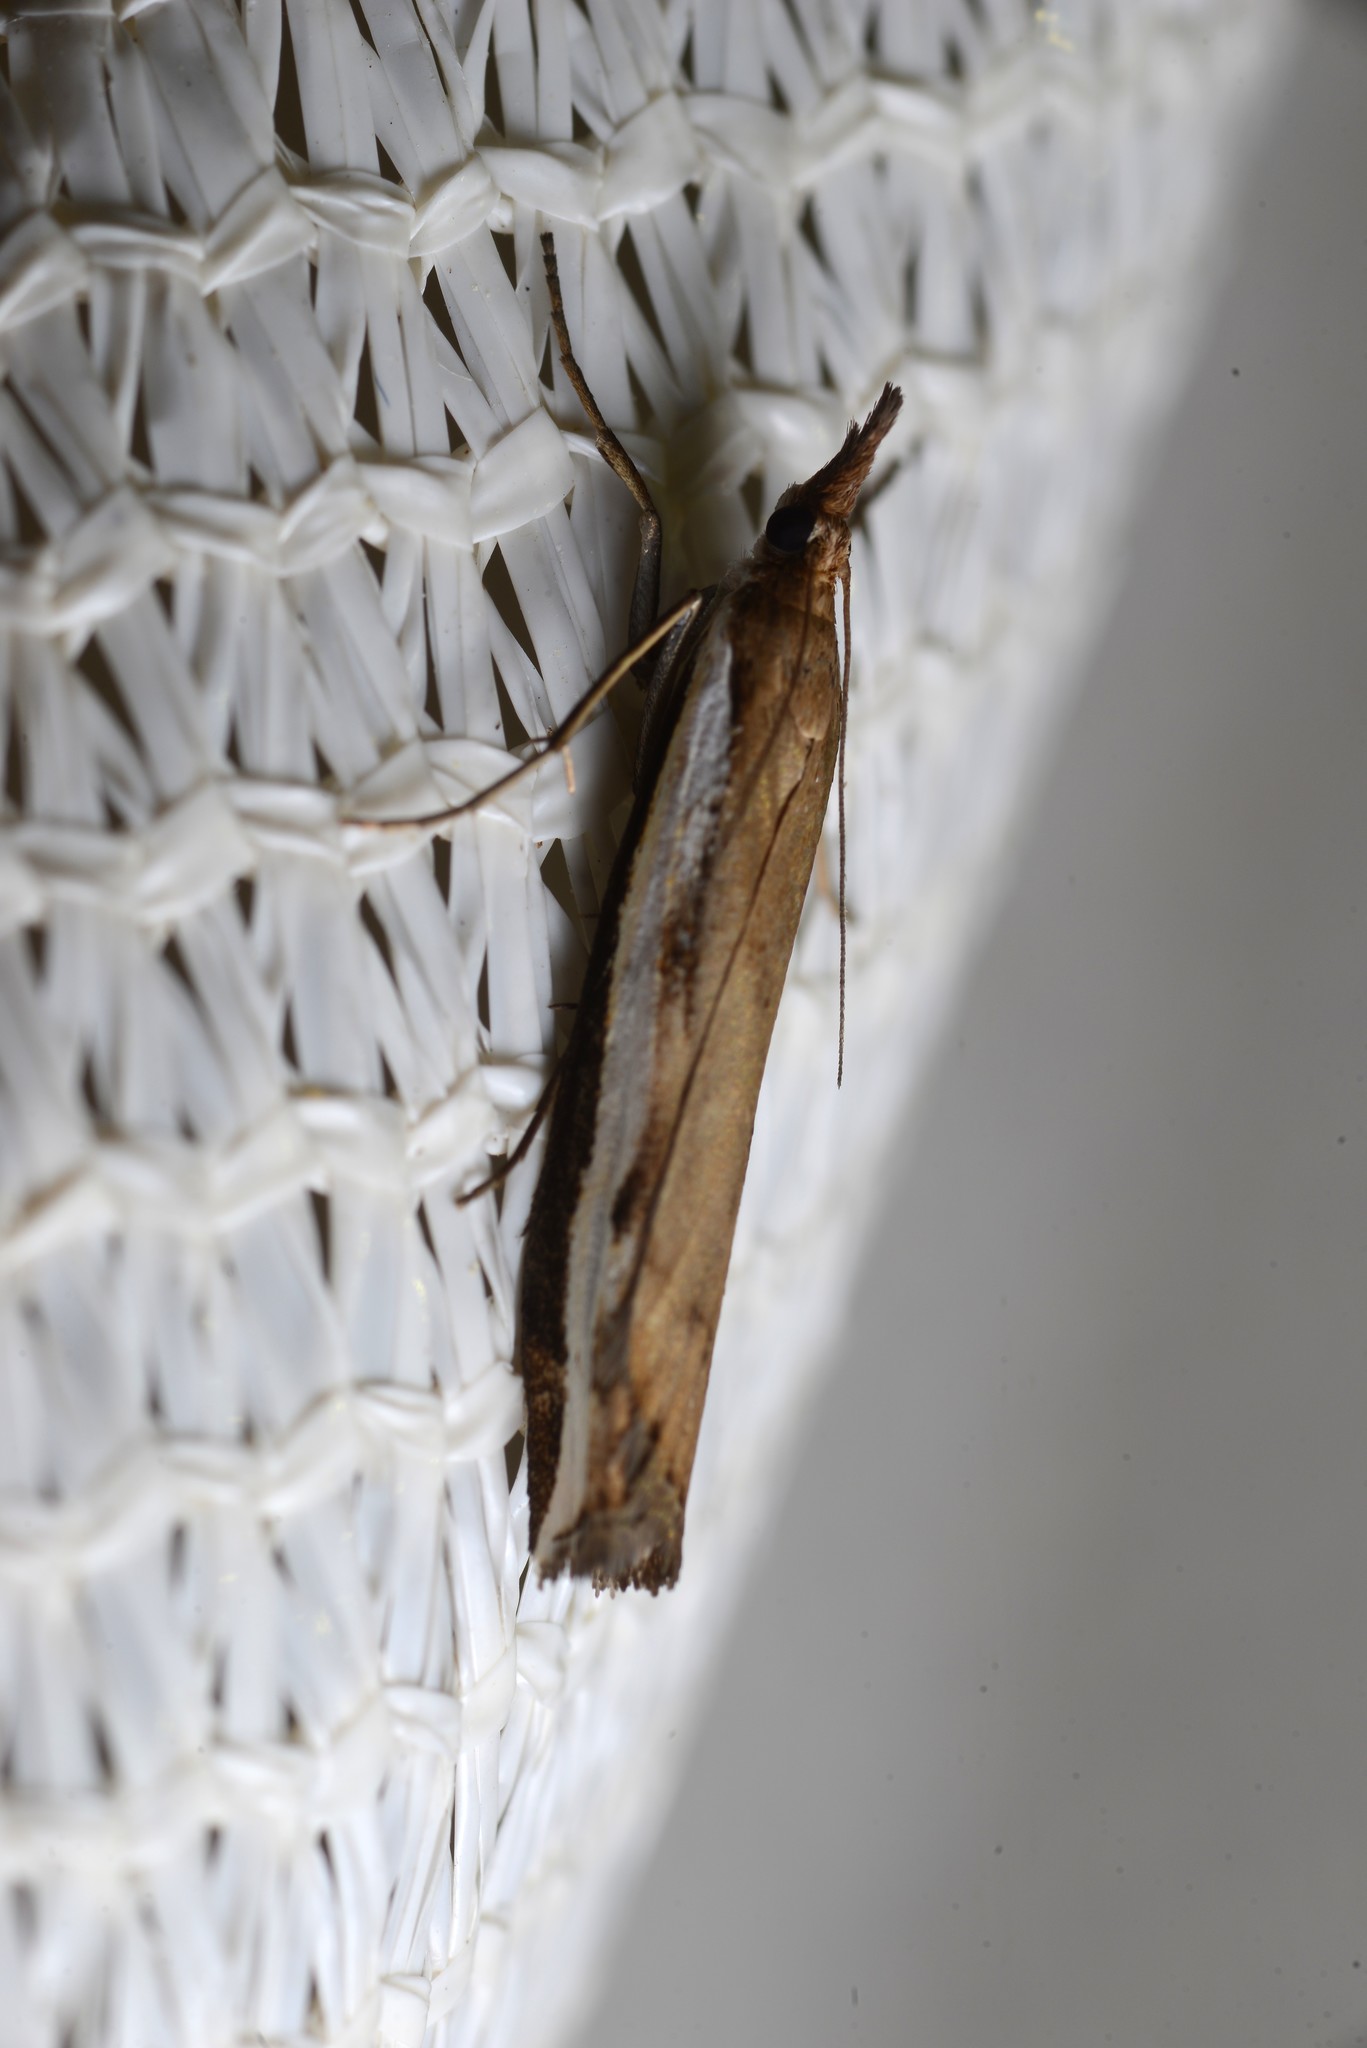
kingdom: Animalia
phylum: Arthropoda
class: Insecta
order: Lepidoptera
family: Crambidae
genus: Orocrambus
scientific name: Orocrambus flexuosellus
